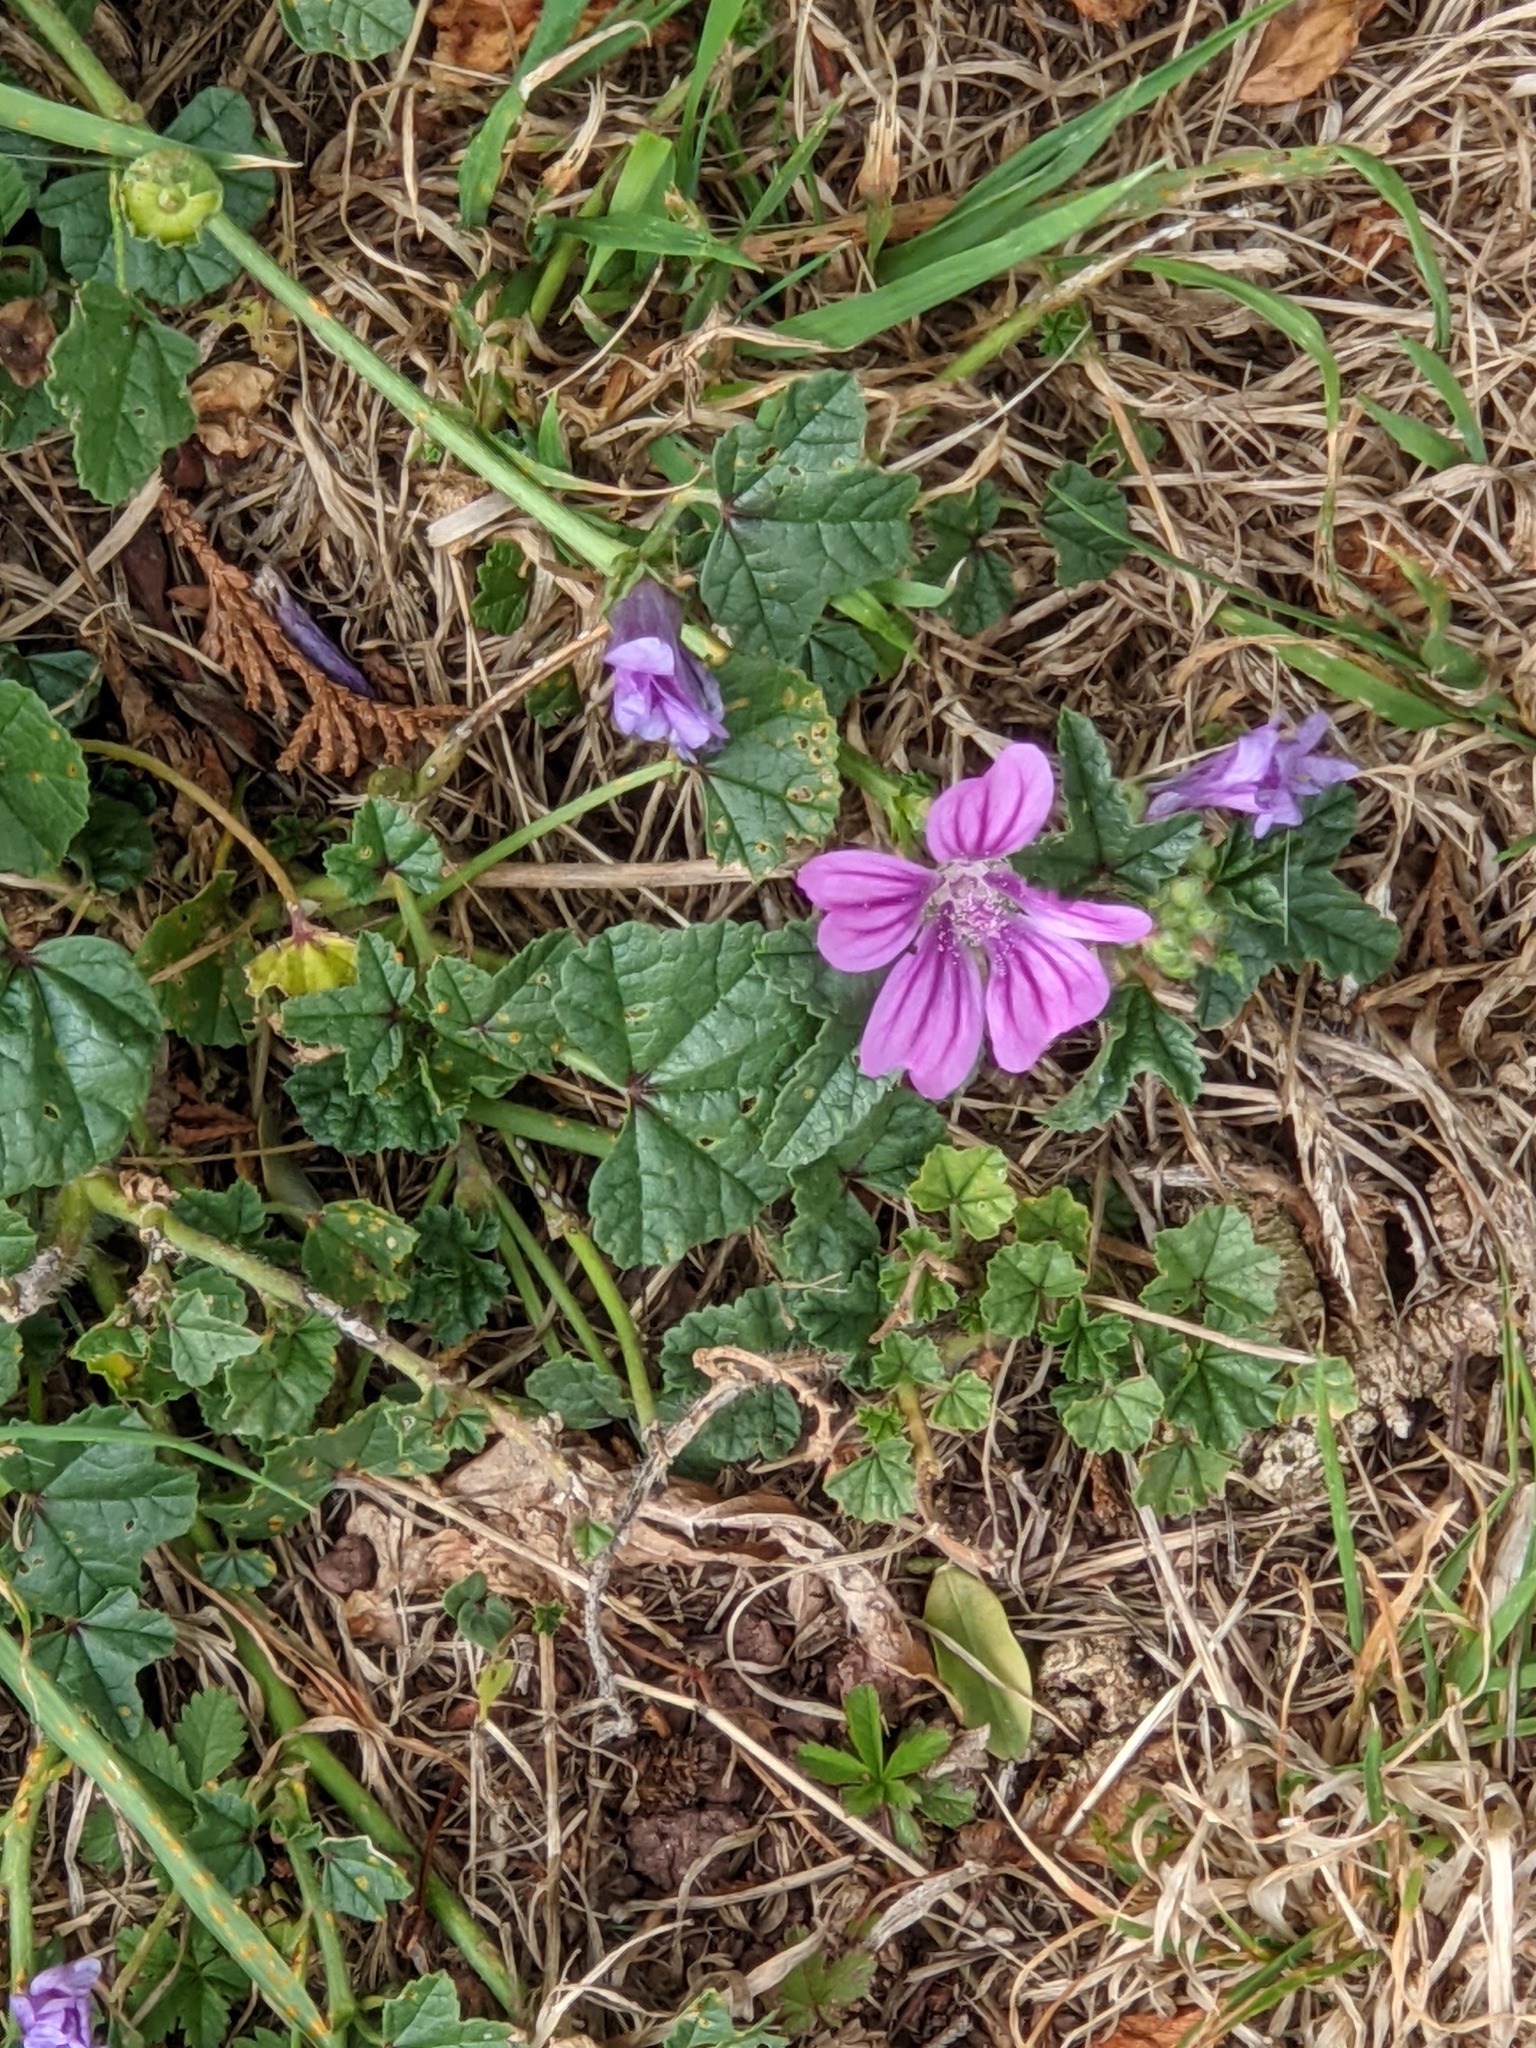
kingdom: Plantae
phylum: Tracheophyta
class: Magnoliopsida
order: Malvales
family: Malvaceae
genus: Malva
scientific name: Malva sylvestris
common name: Common mallow
